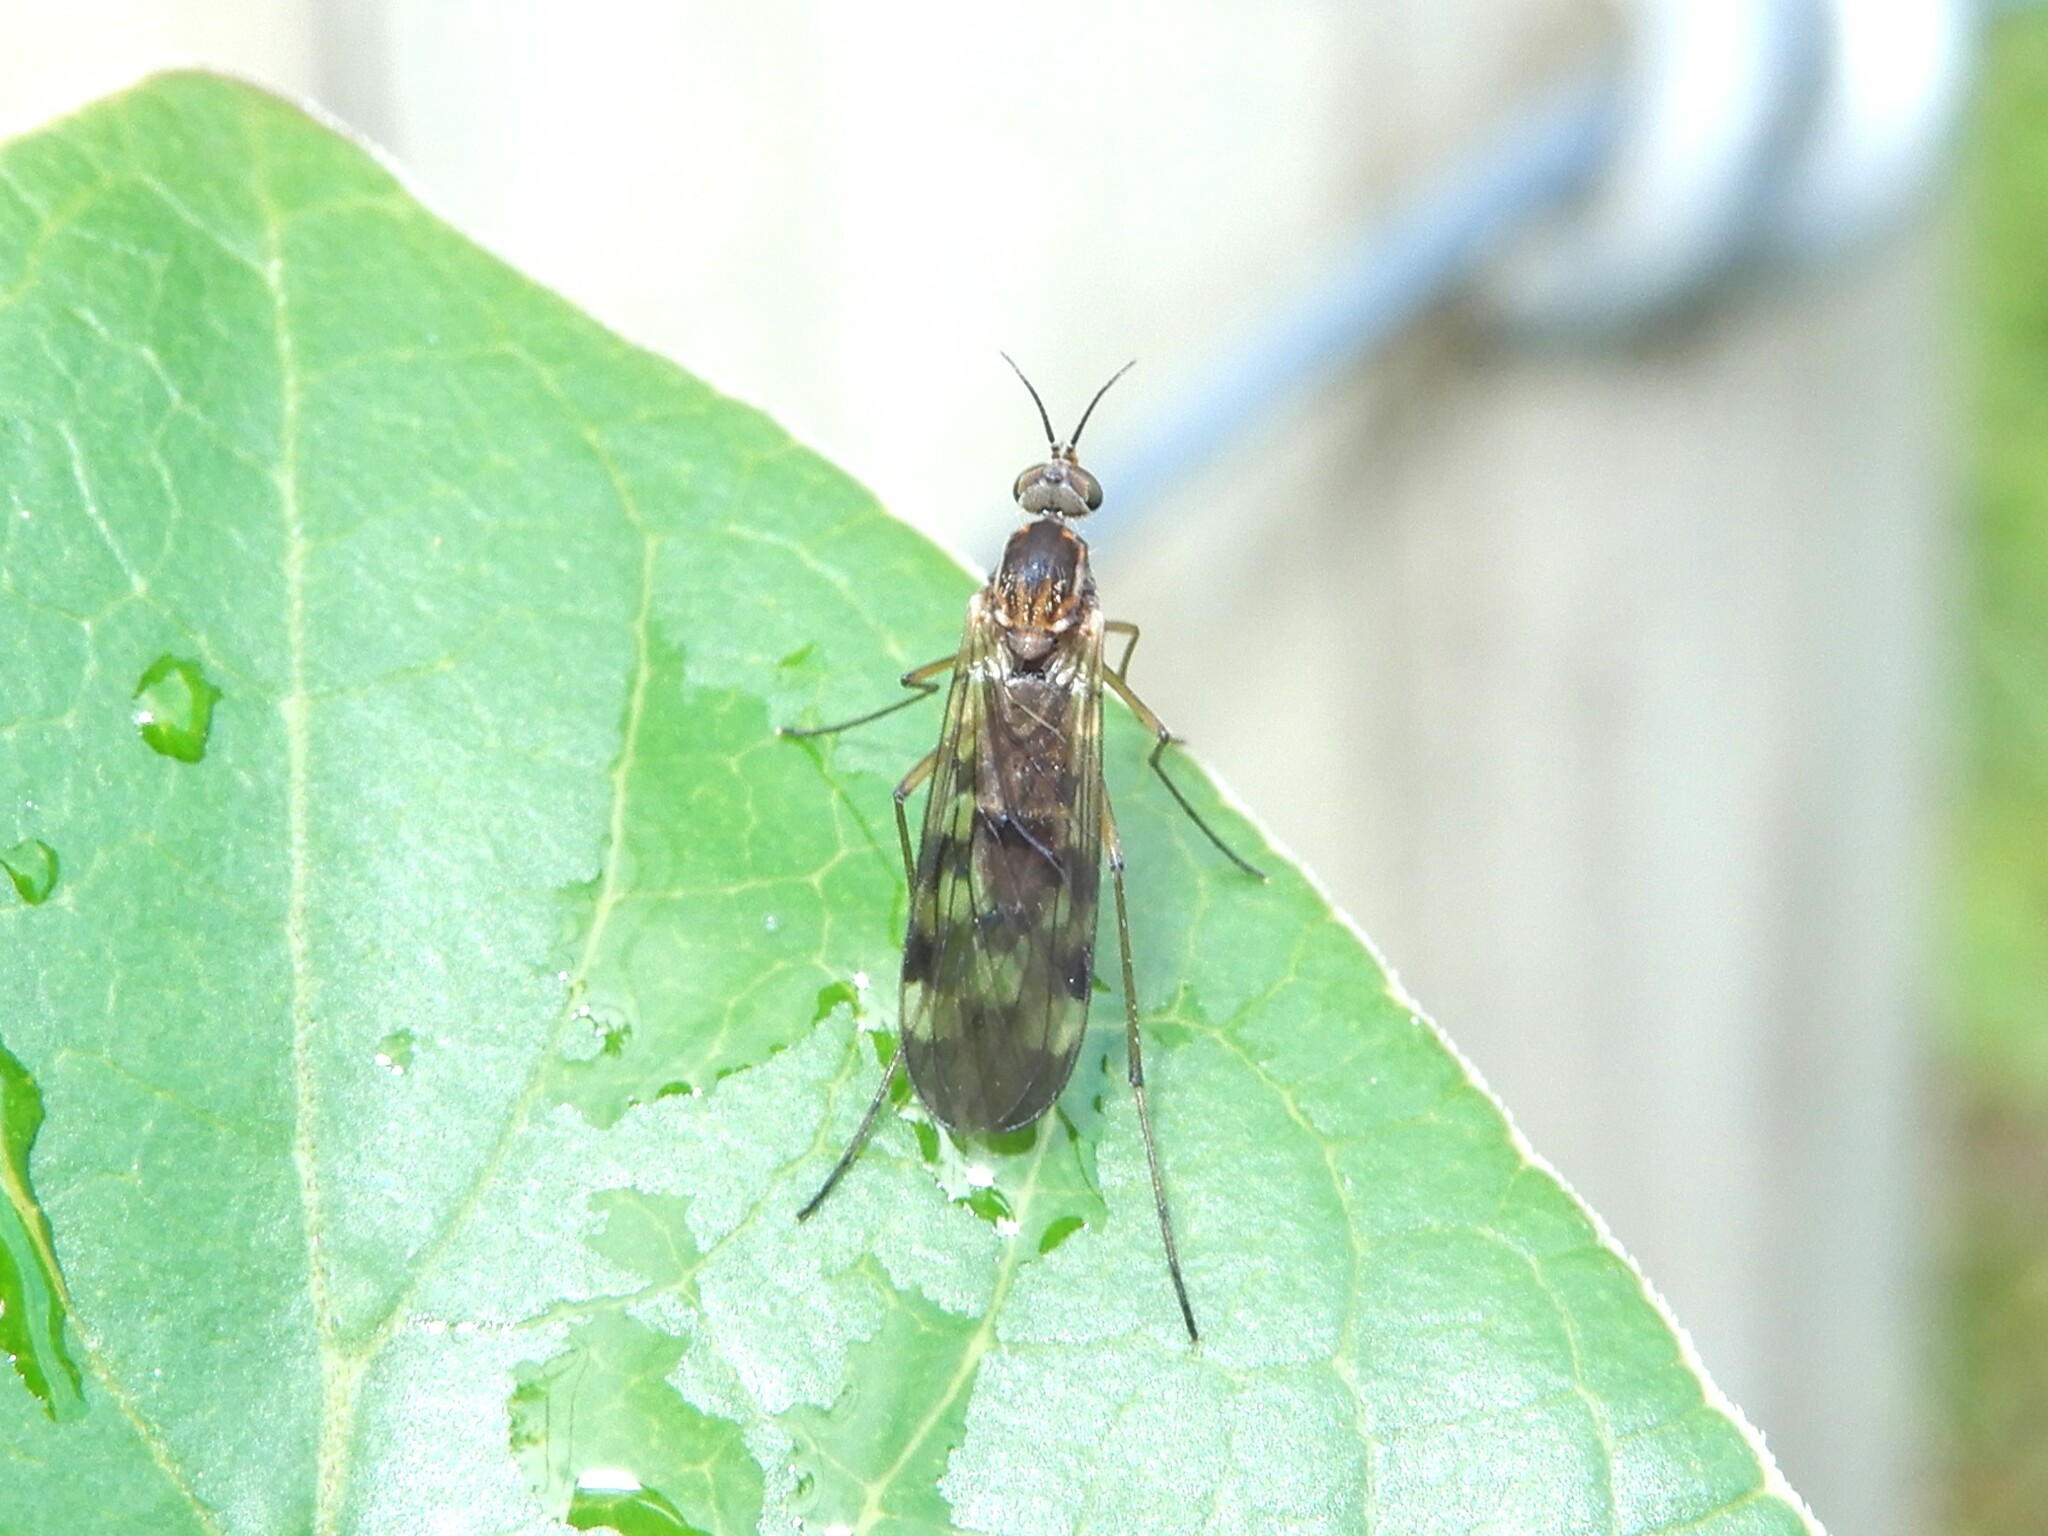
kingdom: Animalia
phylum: Arthropoda
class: Insecta
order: Diptera
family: Anisopodidae
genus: Sylvicola
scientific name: Sylvicola undulatus
